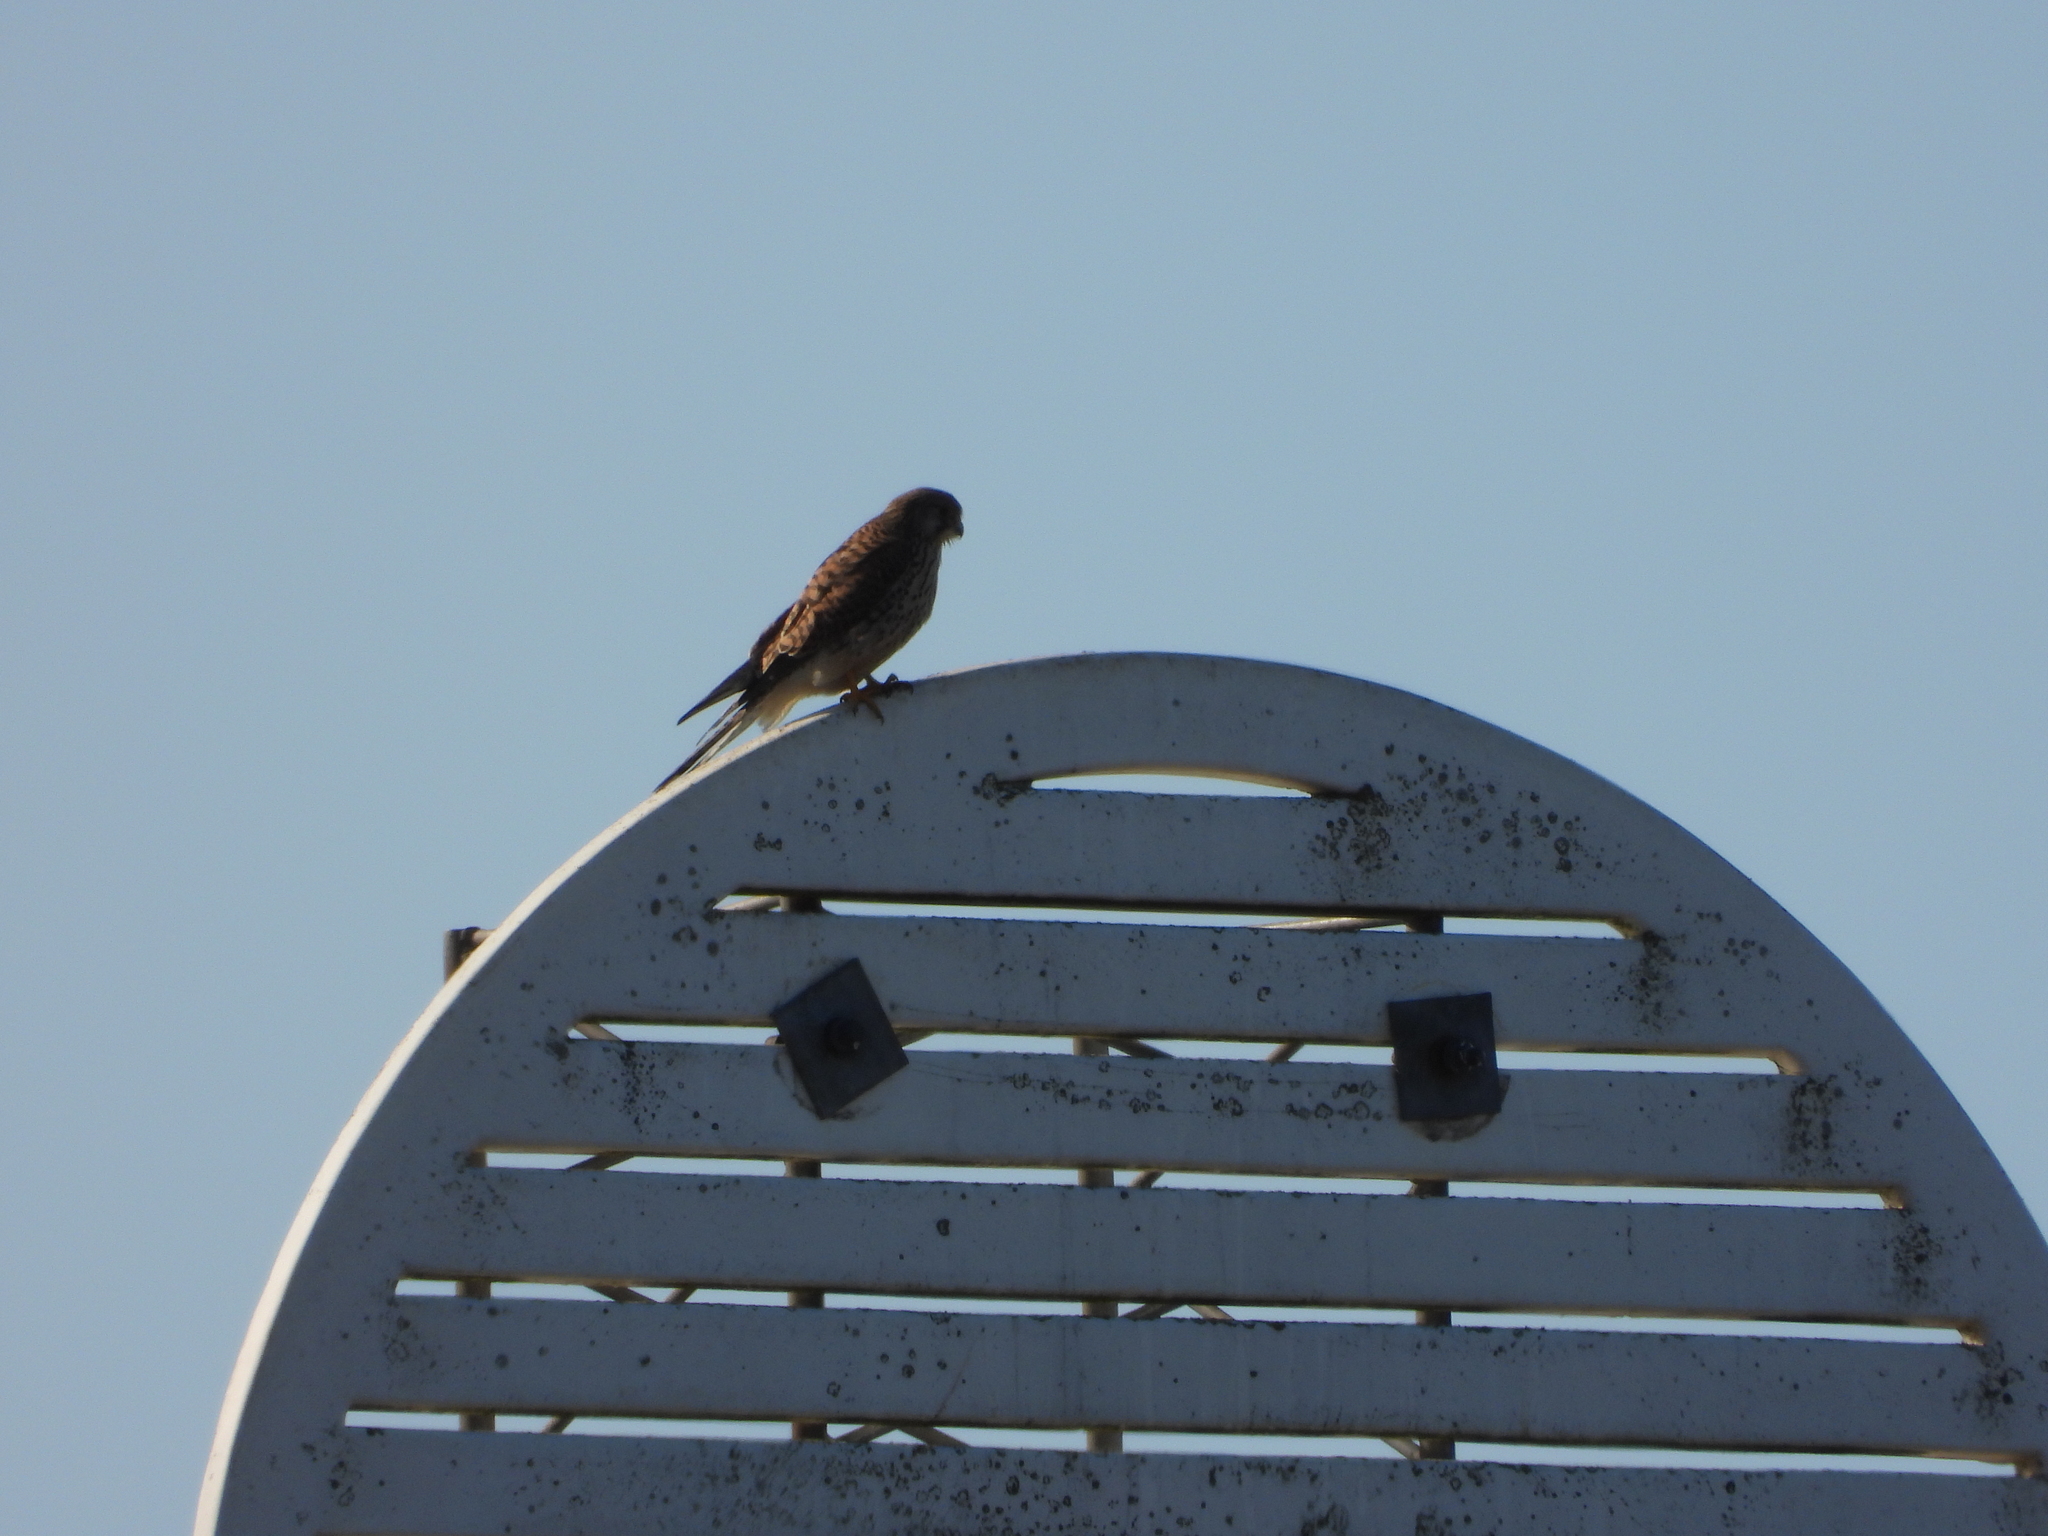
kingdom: Animalia
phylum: Chordata
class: Aves
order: Falconiformes
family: Falconidae
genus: Falco
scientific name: Falco tinnunculus
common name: Common kestrel
